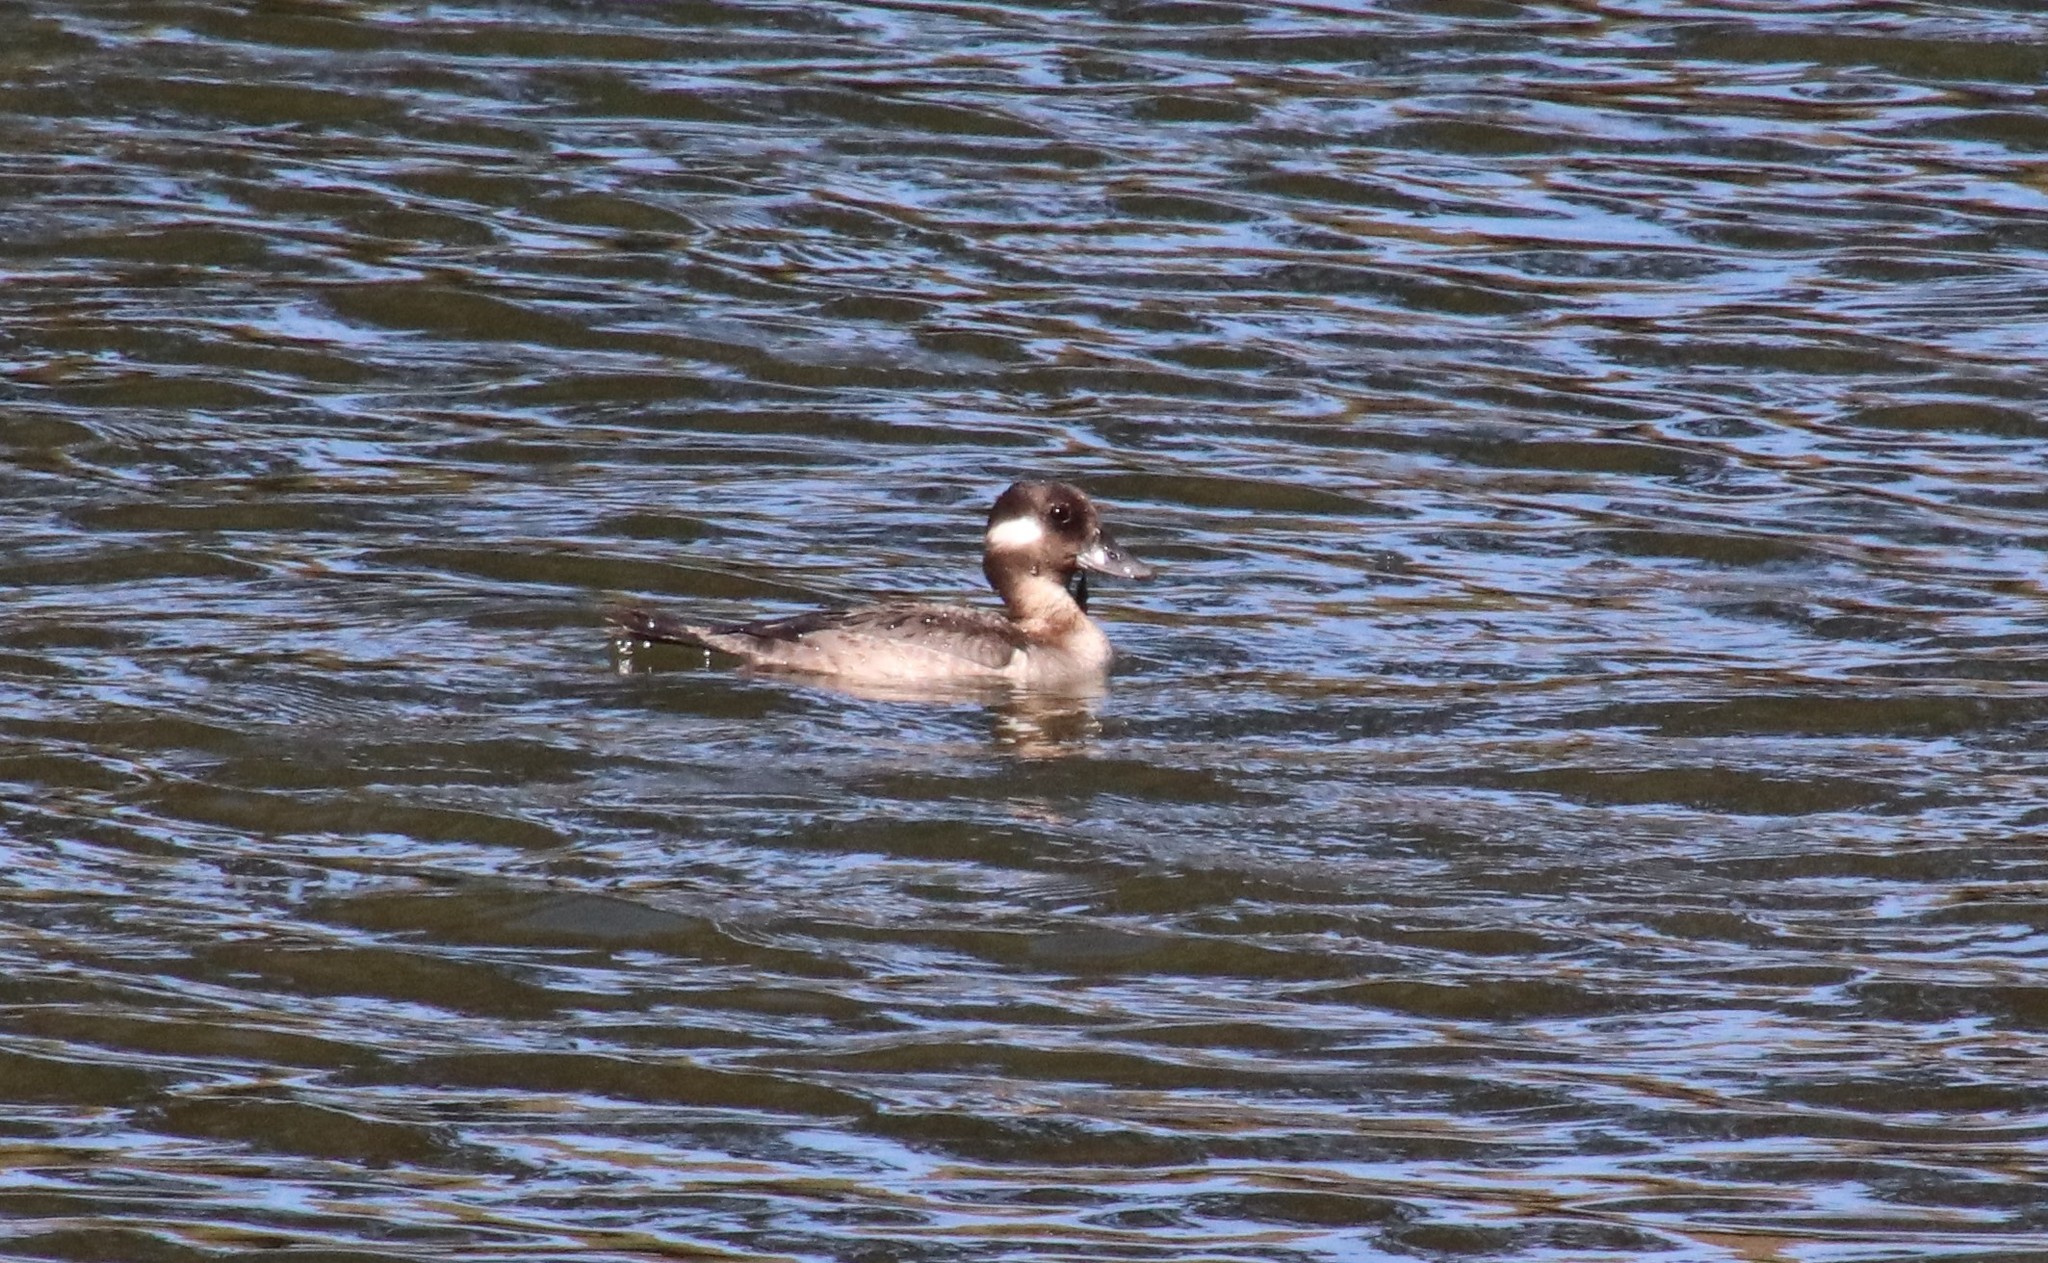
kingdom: Animalia
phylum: Chordata
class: Aves
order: Anseriformes
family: Anatidae
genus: Bucephala
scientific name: Bucephala albeola
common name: Bufflehead
